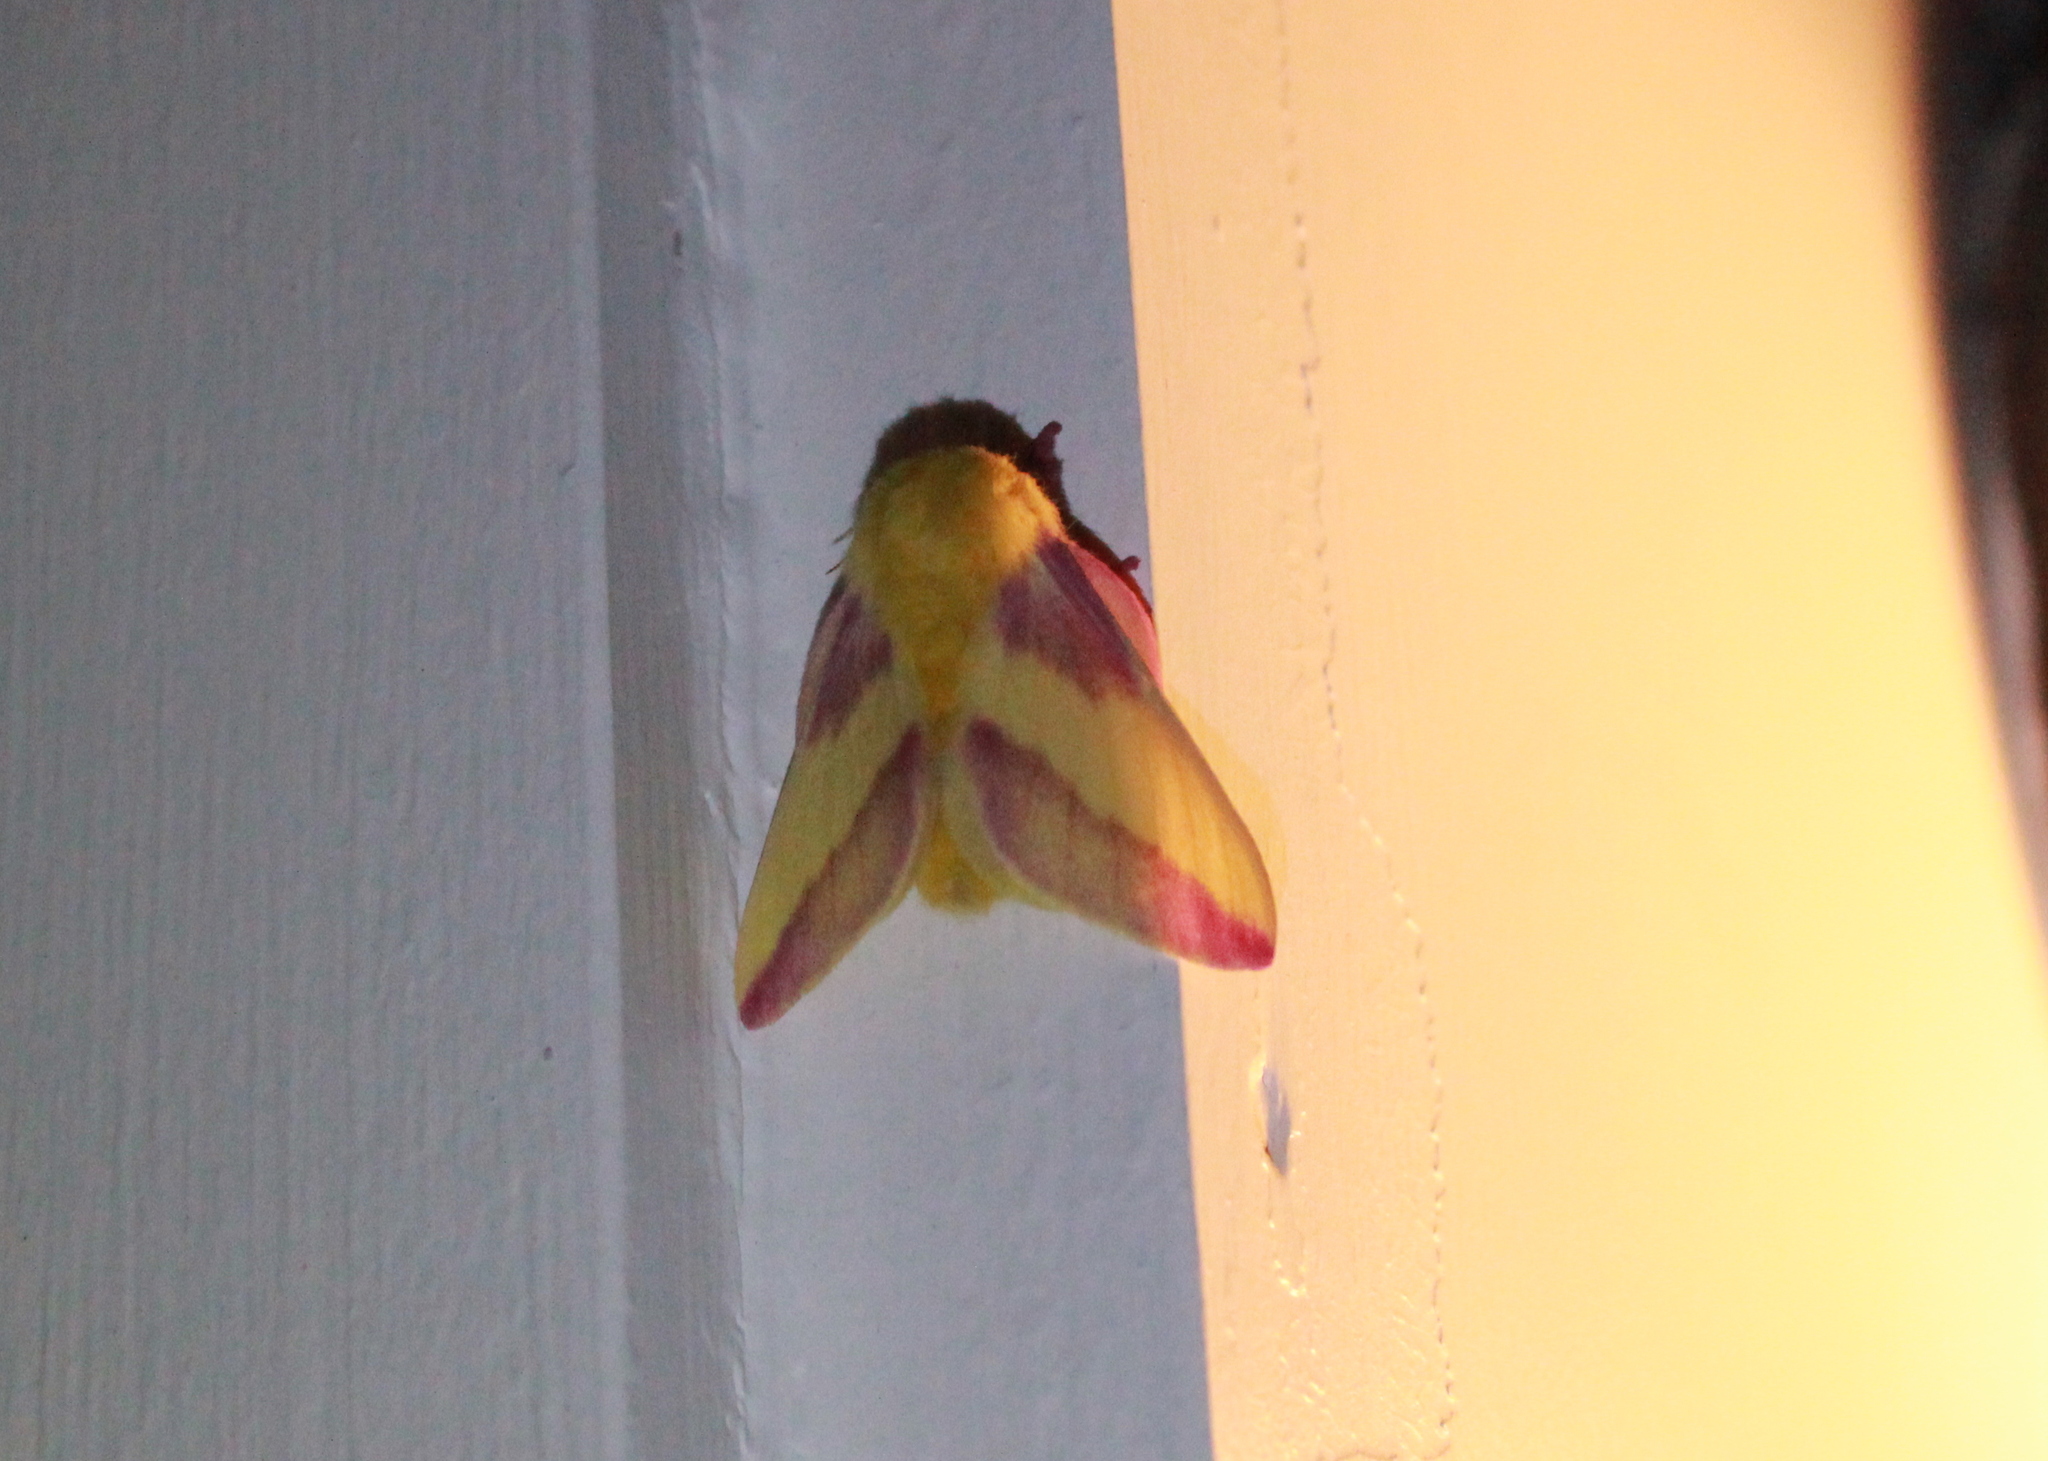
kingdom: Animalia
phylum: Arthropoda
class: Insecta
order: Lepidoptera
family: Saturniidae
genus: Dryocampa
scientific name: Dryocampa rubicunda
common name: Rosy maple moth
